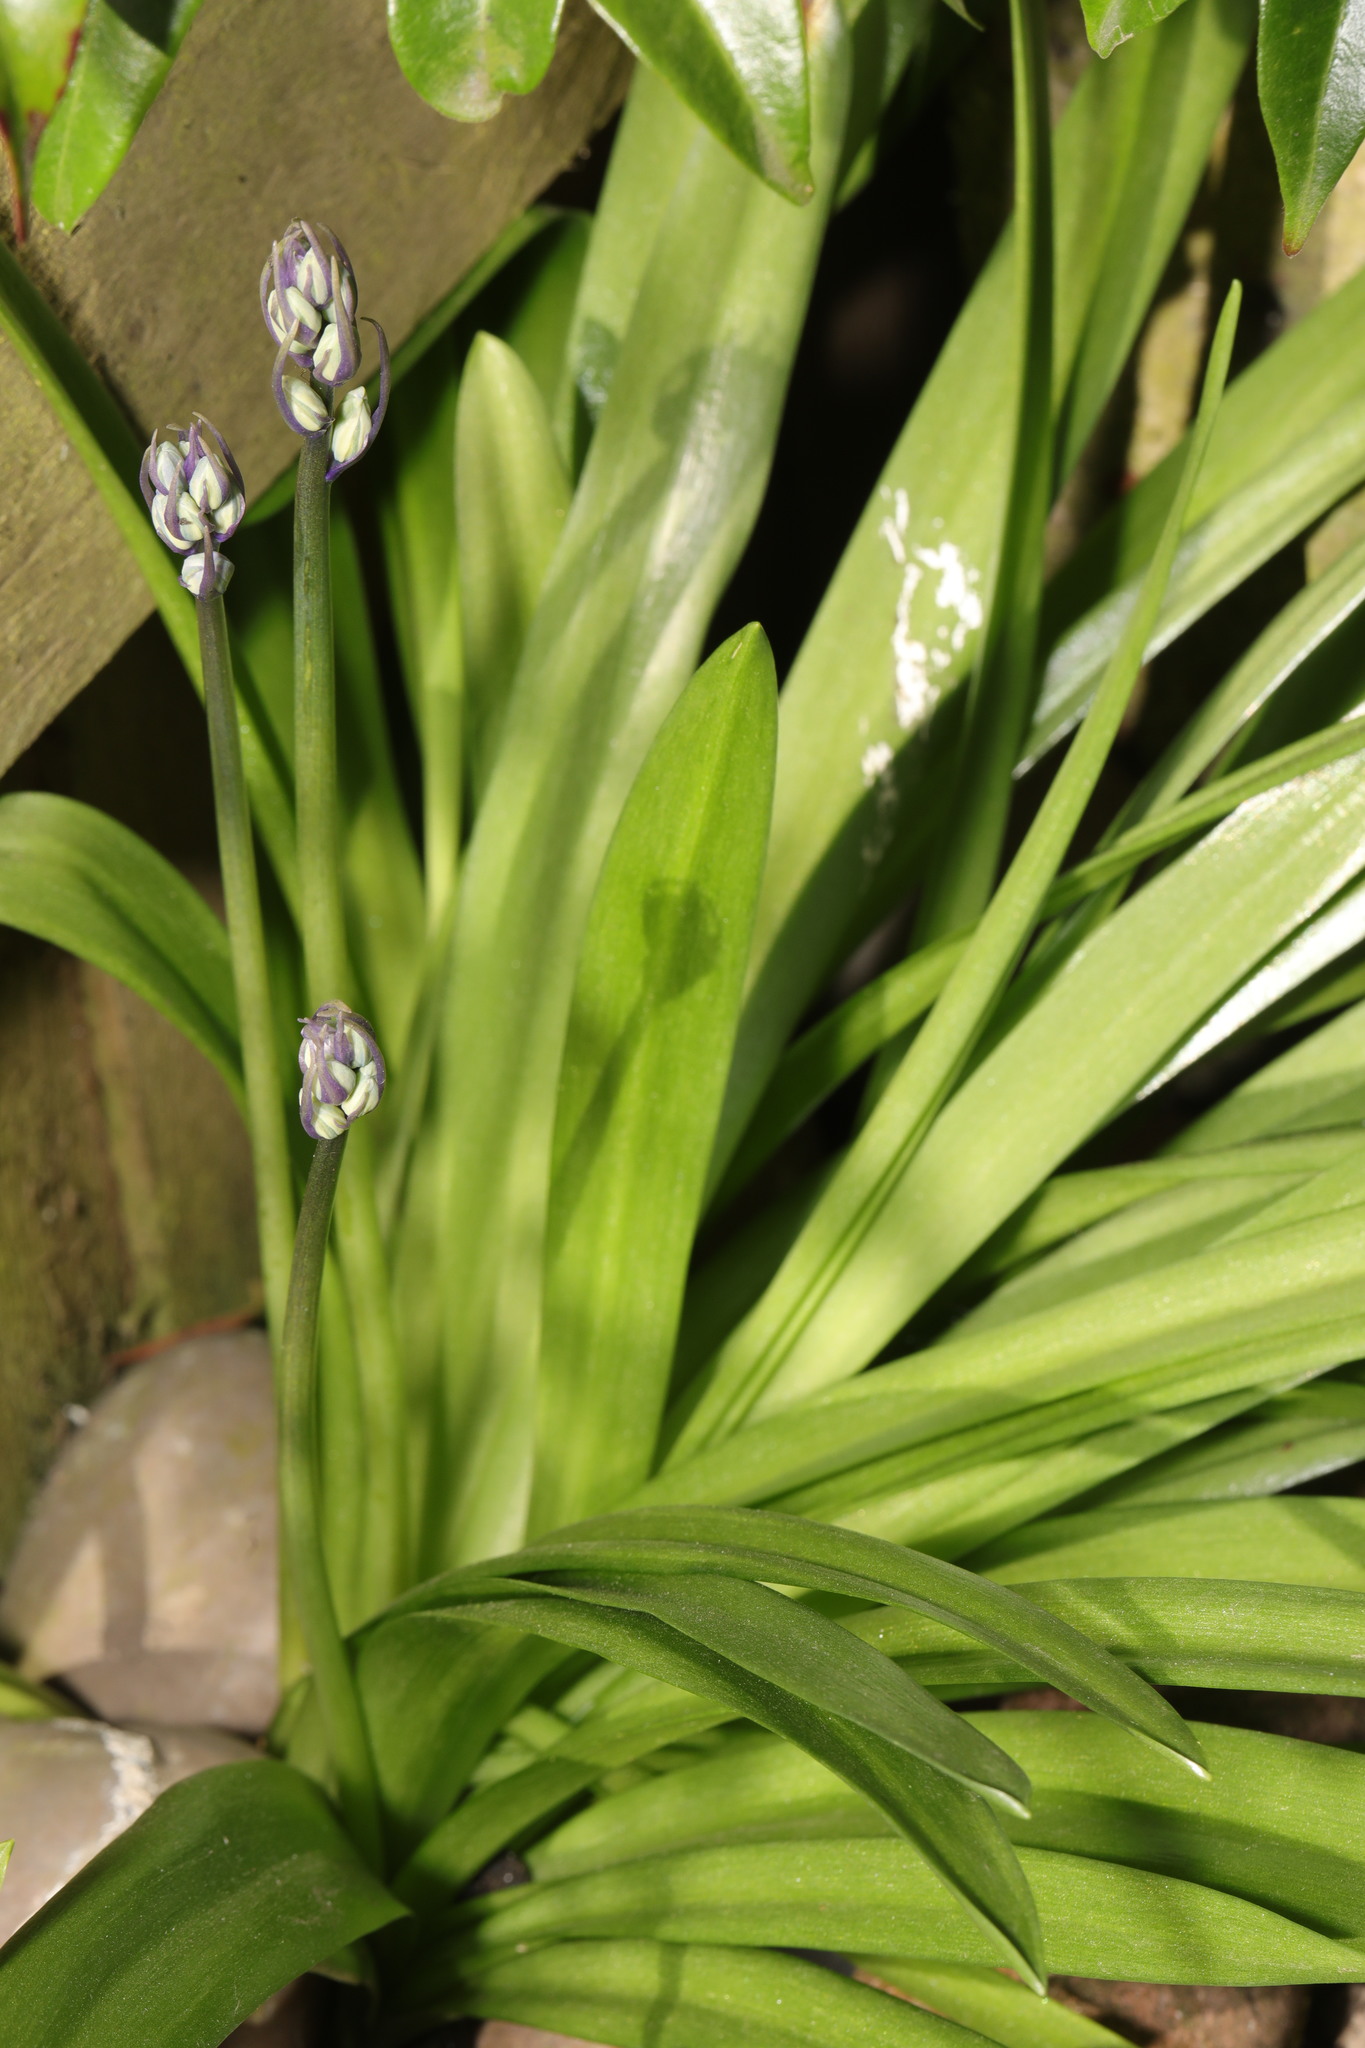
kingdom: Plantae
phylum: Tracheophyta
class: Liliopsida
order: Asparagales
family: Asparagaceae
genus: Hyacinthoides
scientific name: Hyacinthoides hispanica
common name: Spanish bluebell
